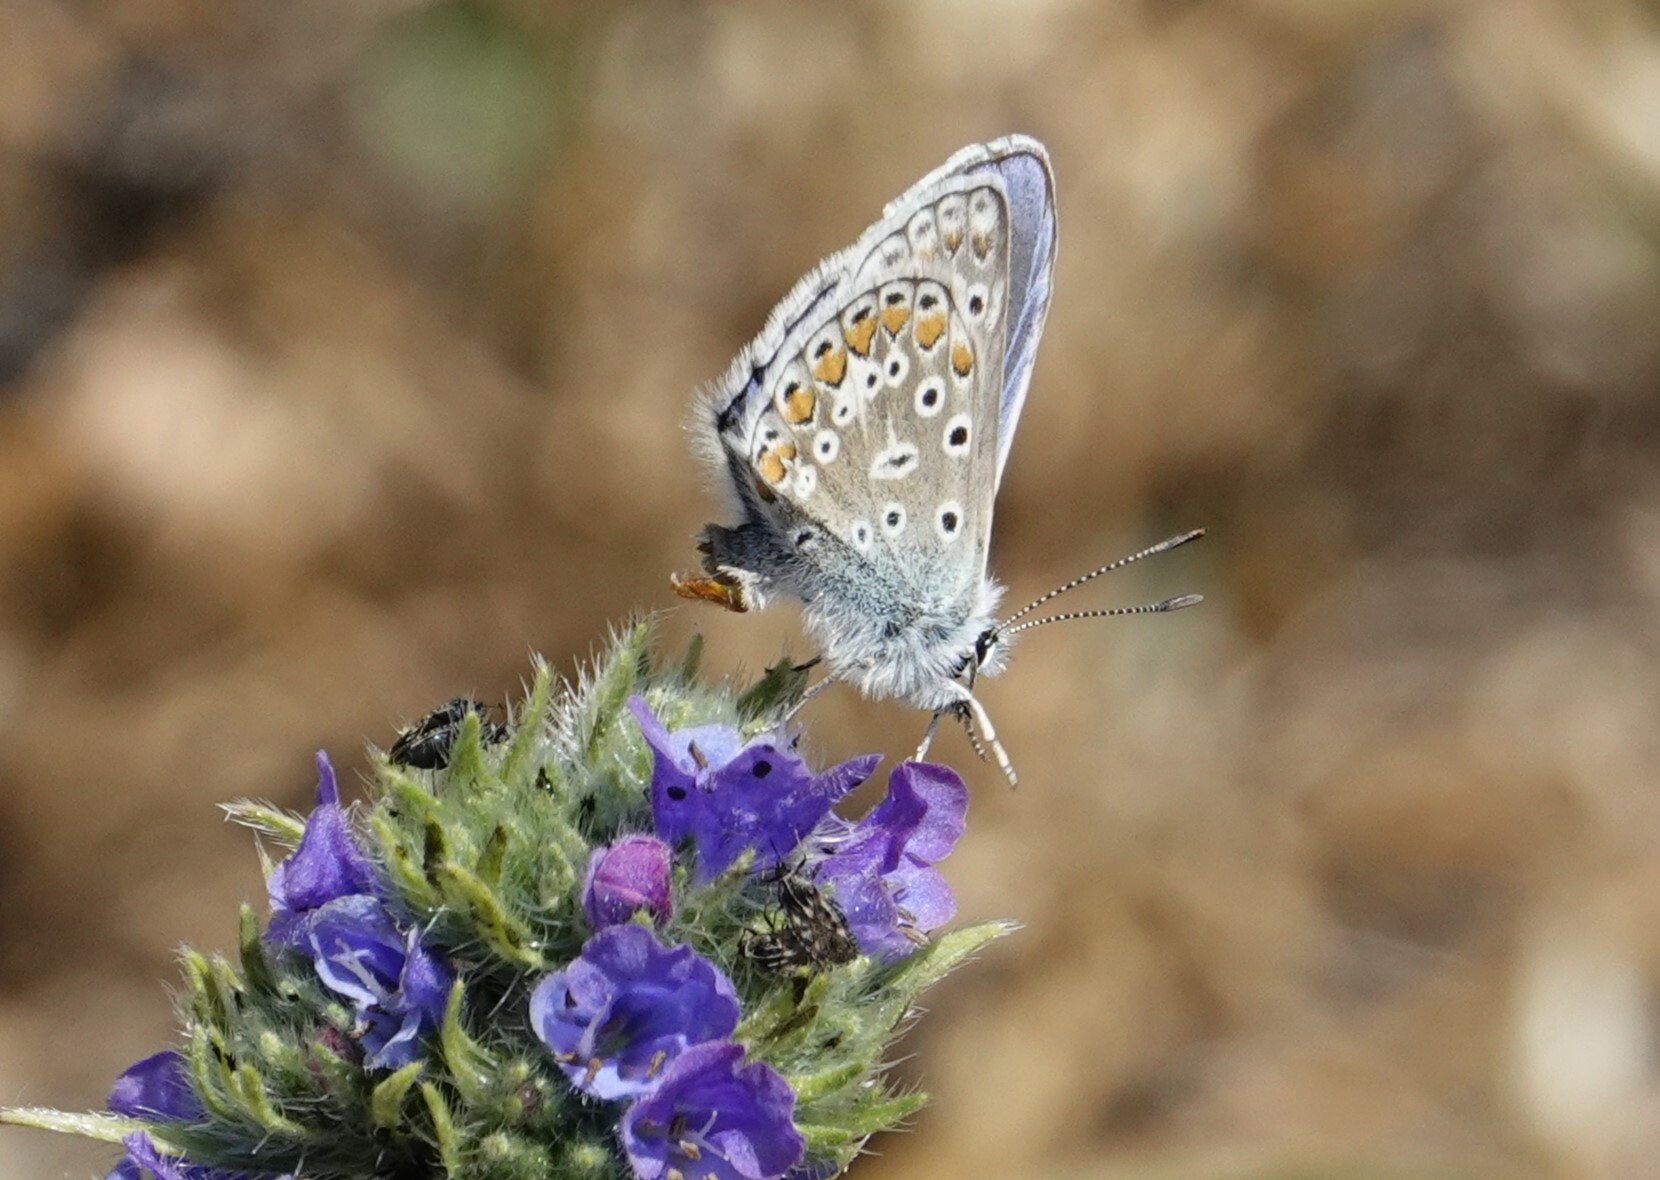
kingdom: Animalia
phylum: Arthropoda
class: Insecta
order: Lepidoptera
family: Lycaenidae
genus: Polyommatus
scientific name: Polyommatus icarus
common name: Common blue
